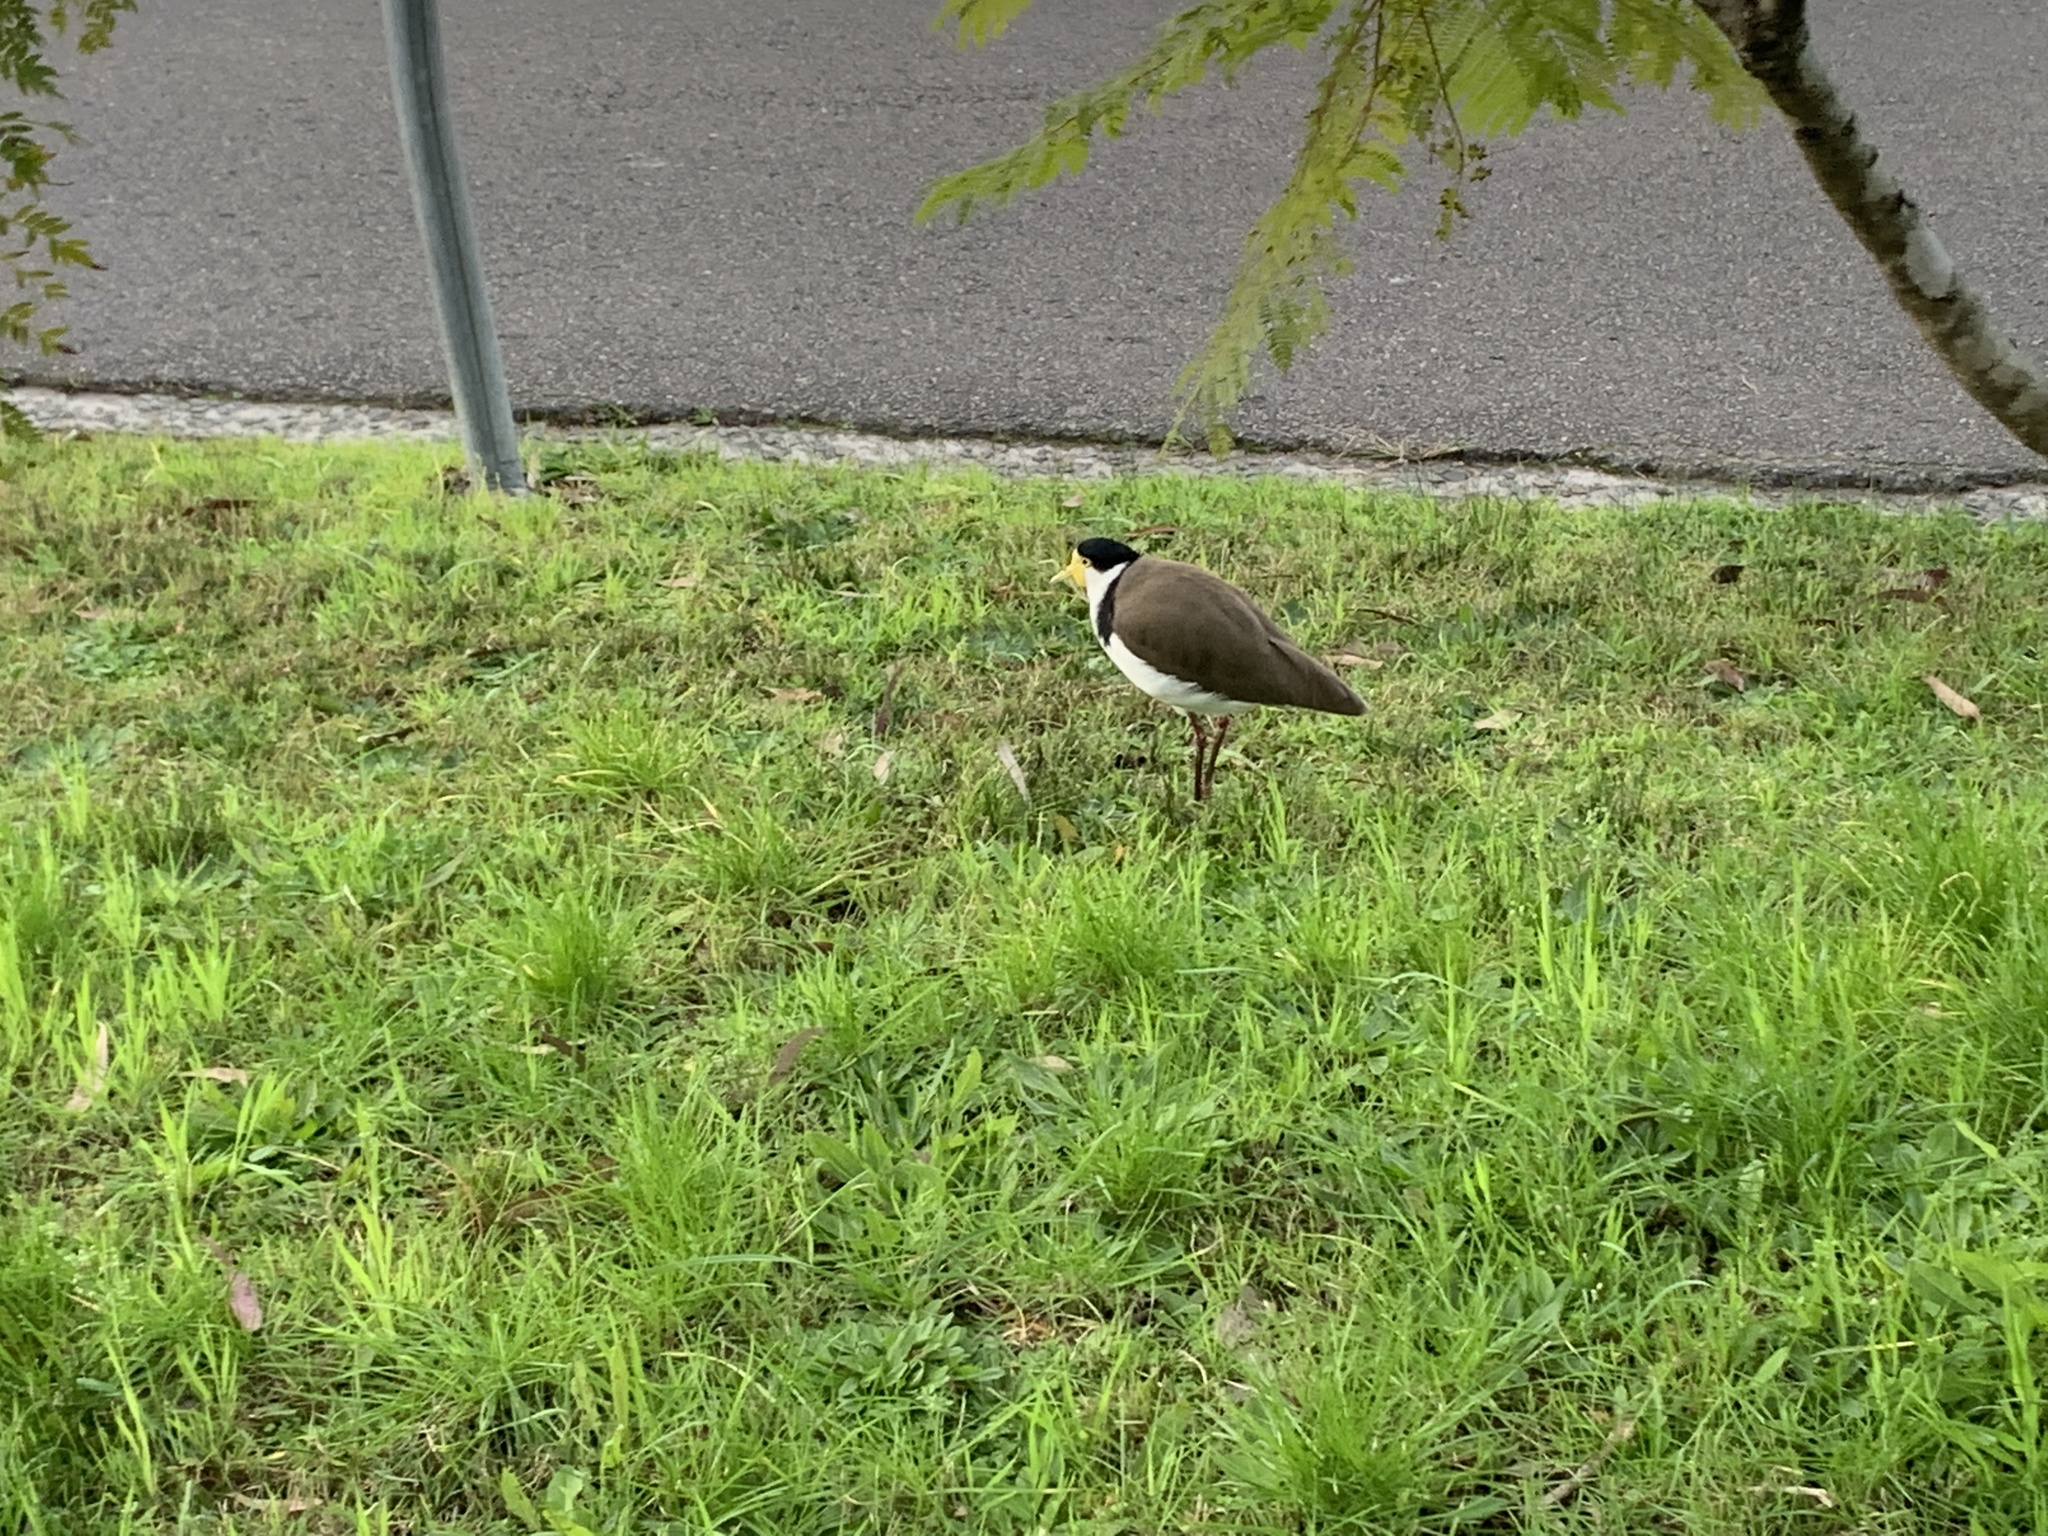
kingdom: Animalia
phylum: Chordata
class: Aves
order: Charadriiformes
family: Charadriidae
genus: Vanellus
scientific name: Vanellus miles
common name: Masked lapwing
